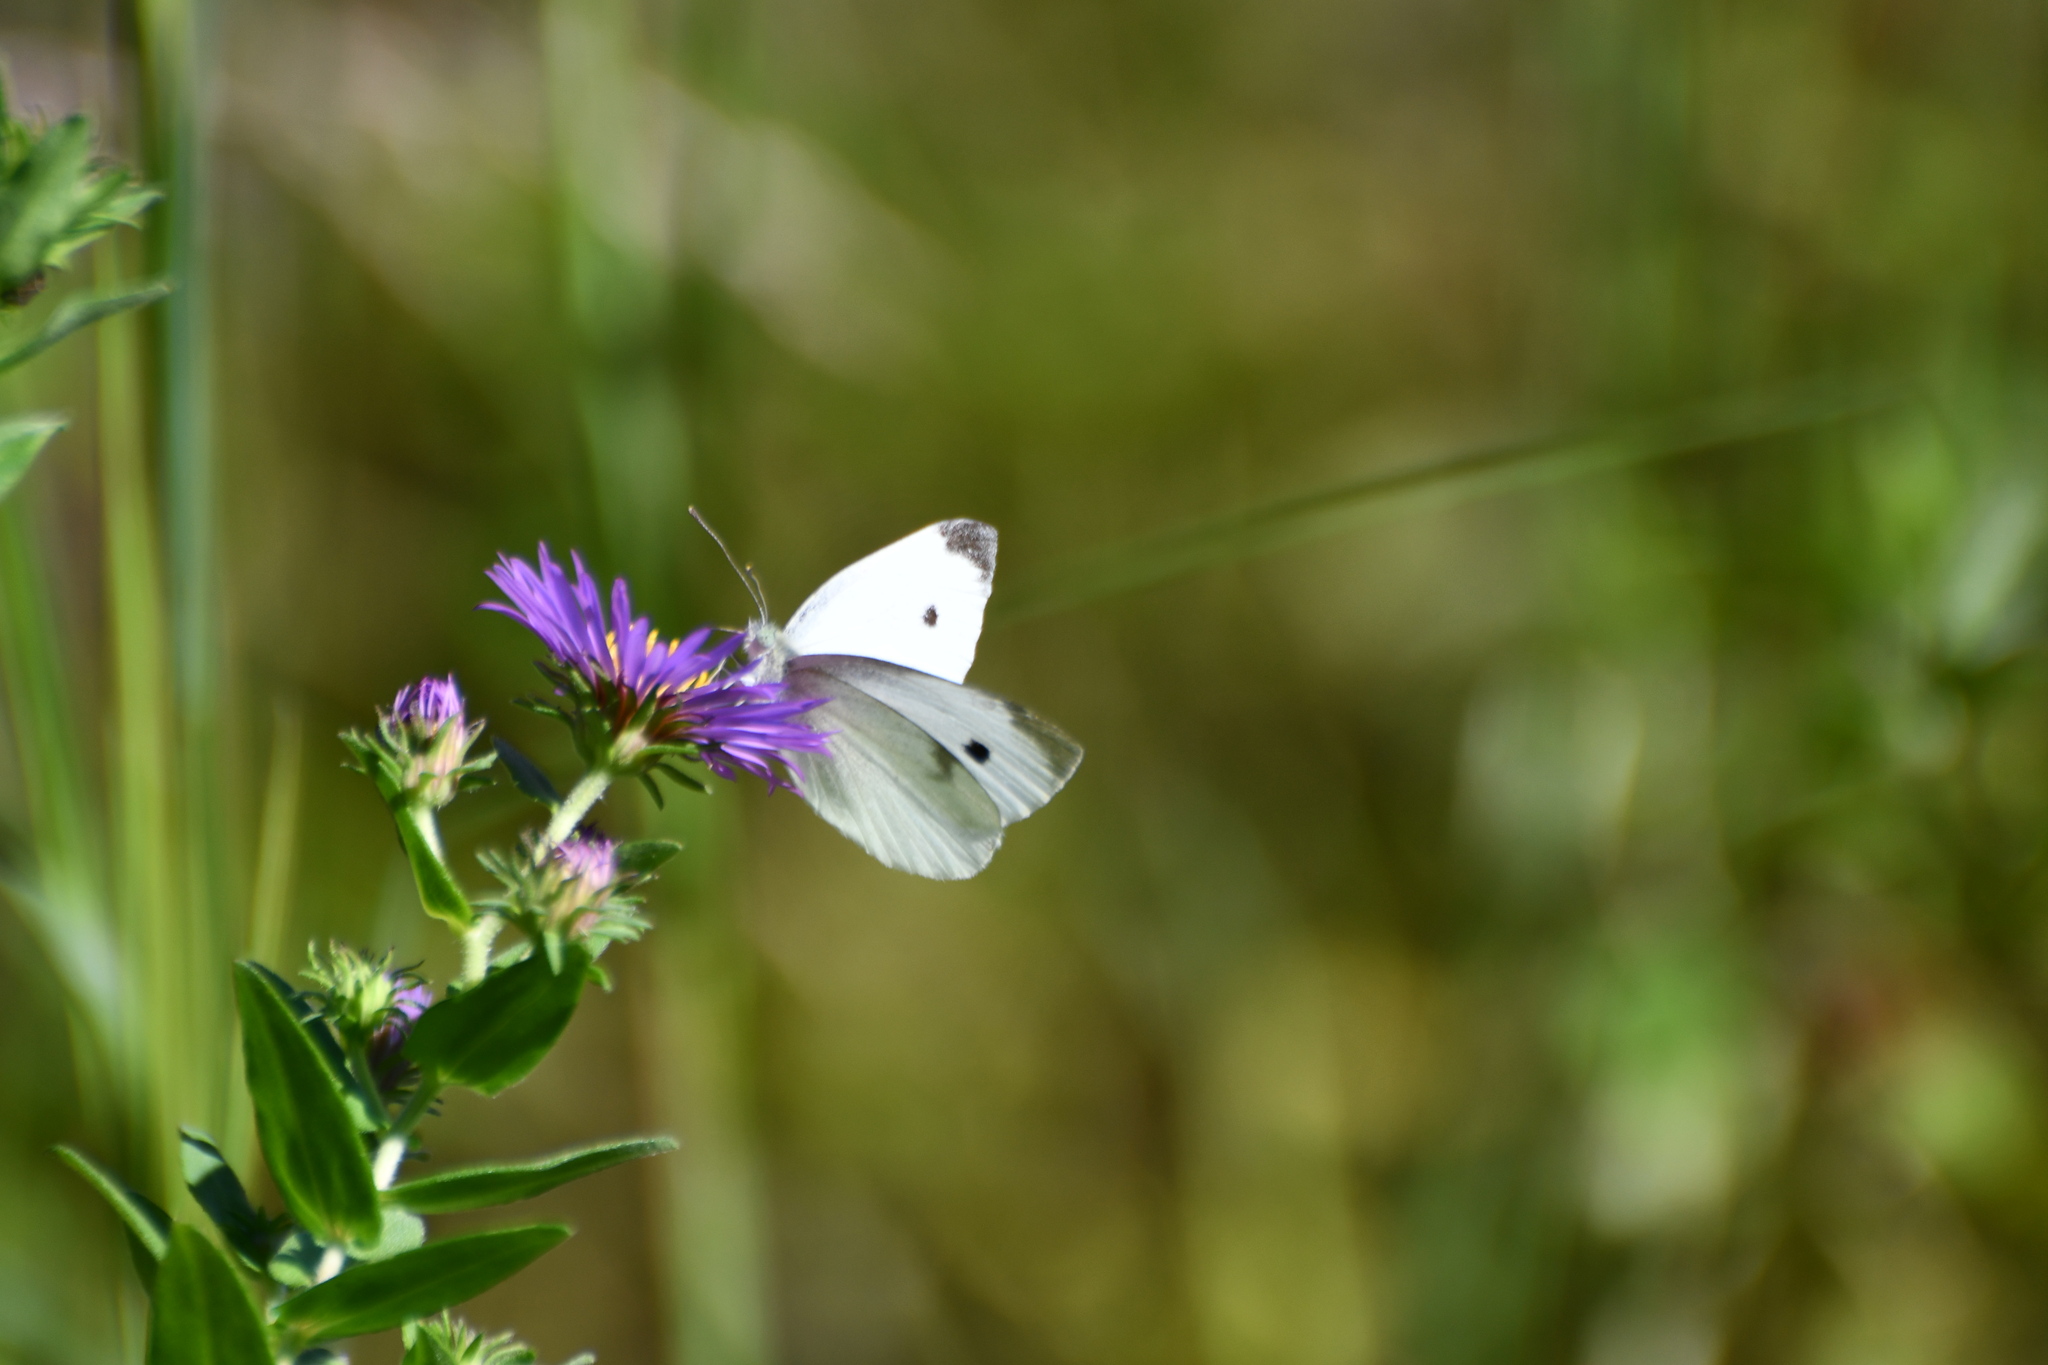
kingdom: Animalia
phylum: Arthropoda
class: Insecta
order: Lepidoptera
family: Pieridae
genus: Pieris
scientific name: Pieris rapae
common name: Small white
